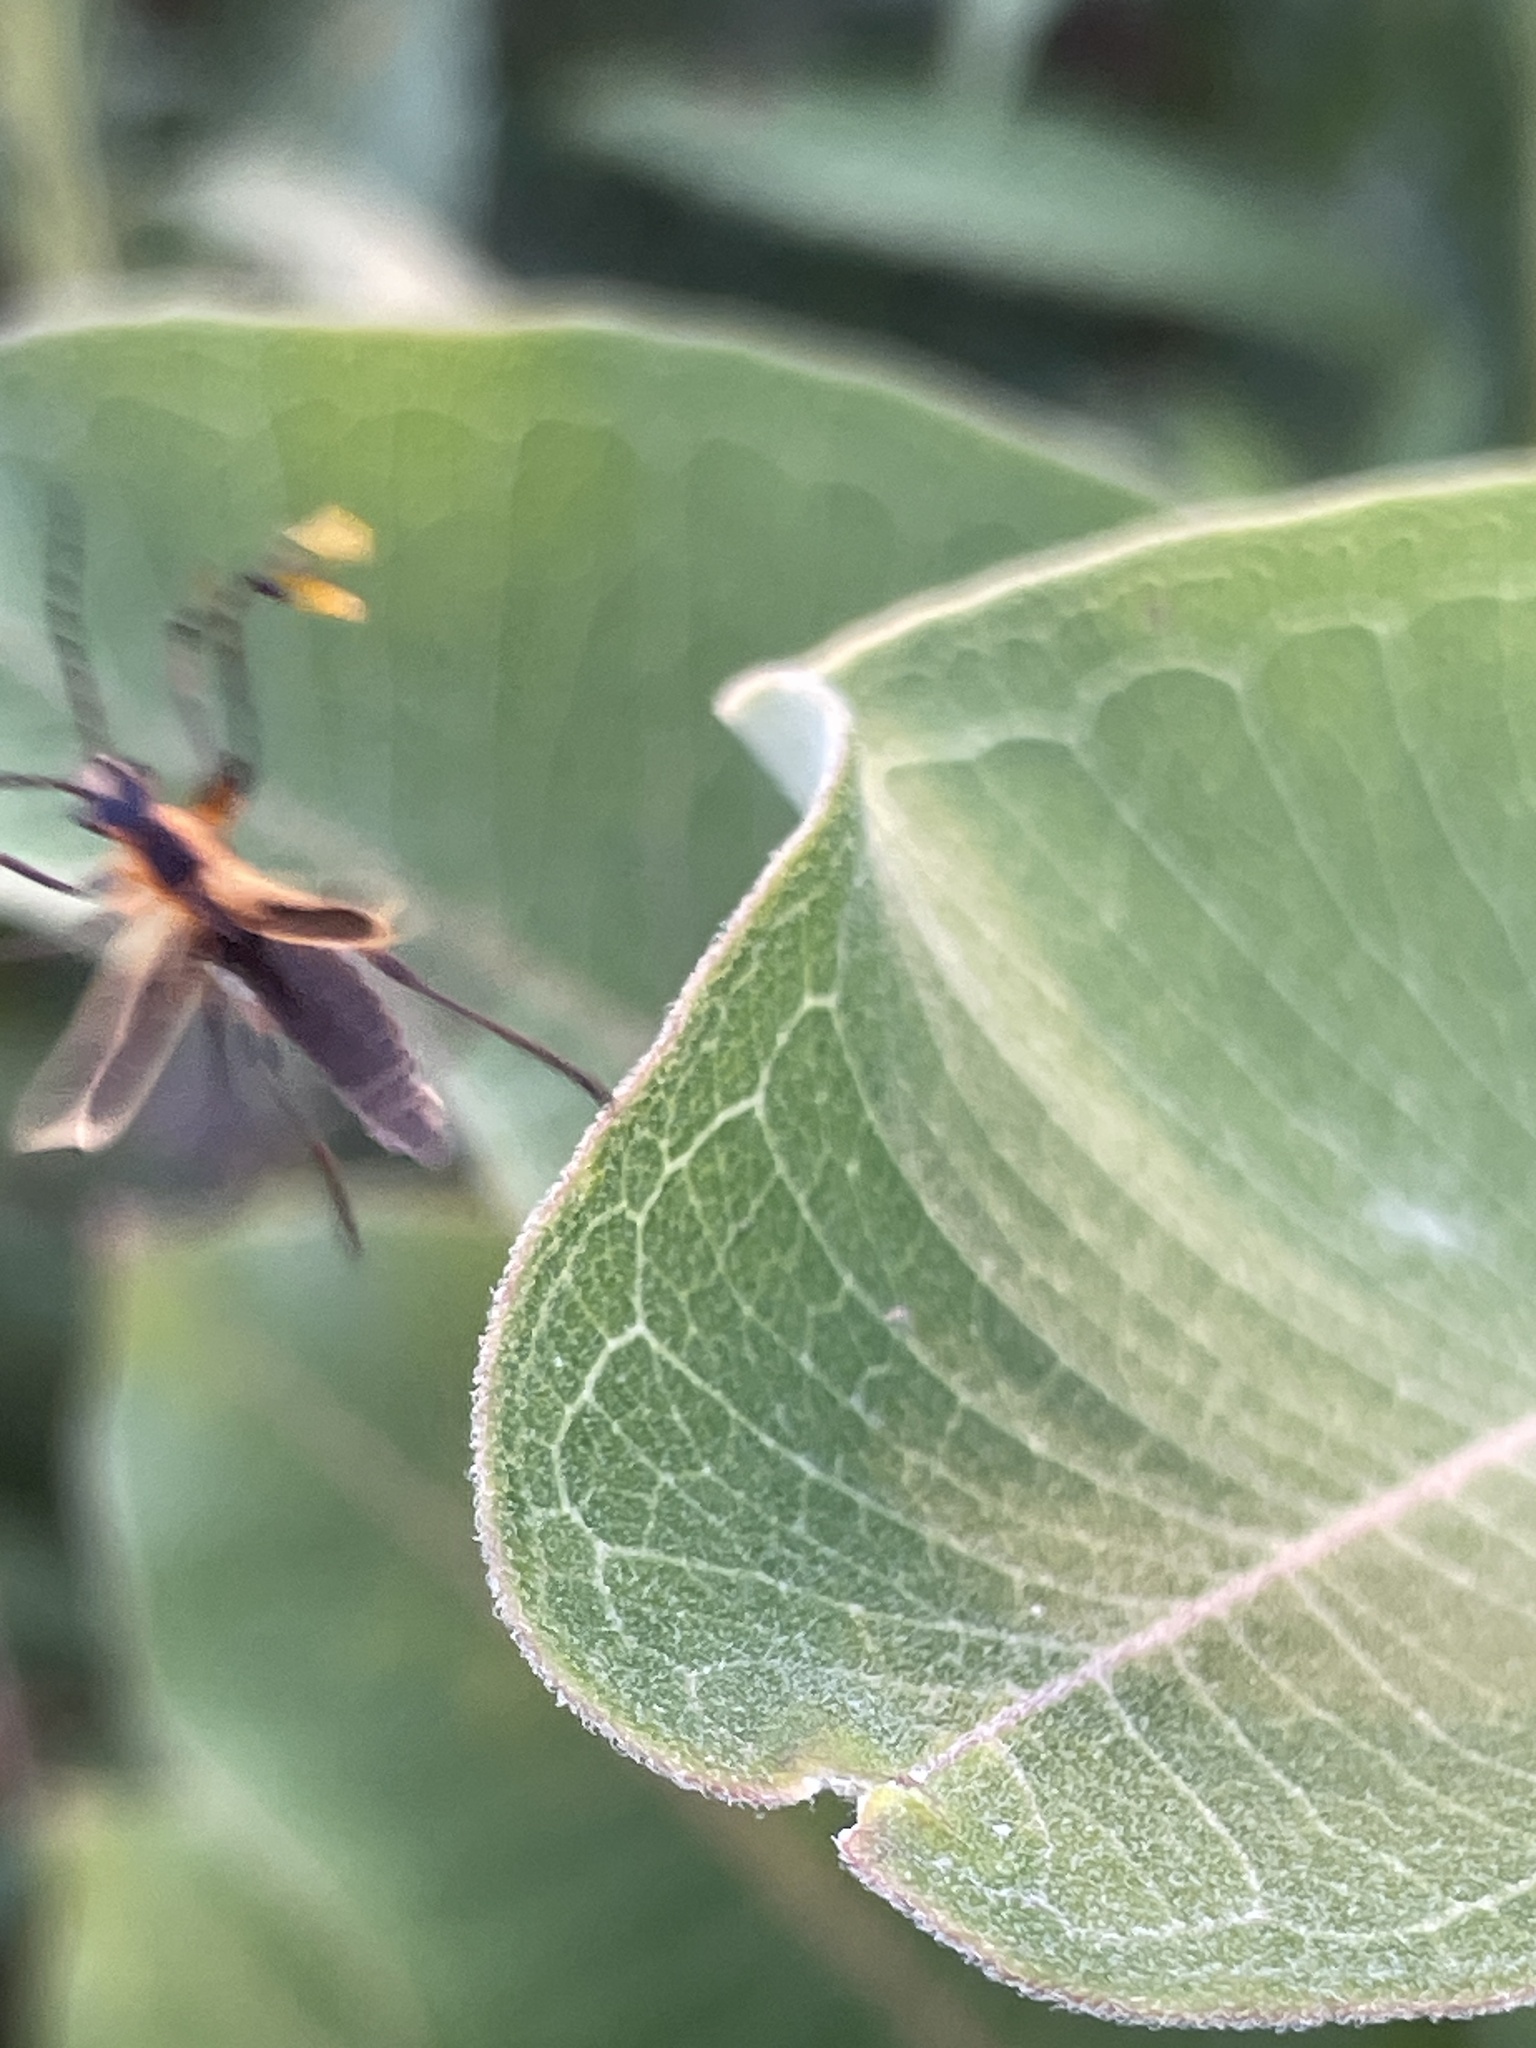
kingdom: Animalia
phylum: Arthropoda
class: Insecta
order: Coleoptera
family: Cantharidae
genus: Chauliognathus
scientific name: Chauliognathus marginatus
